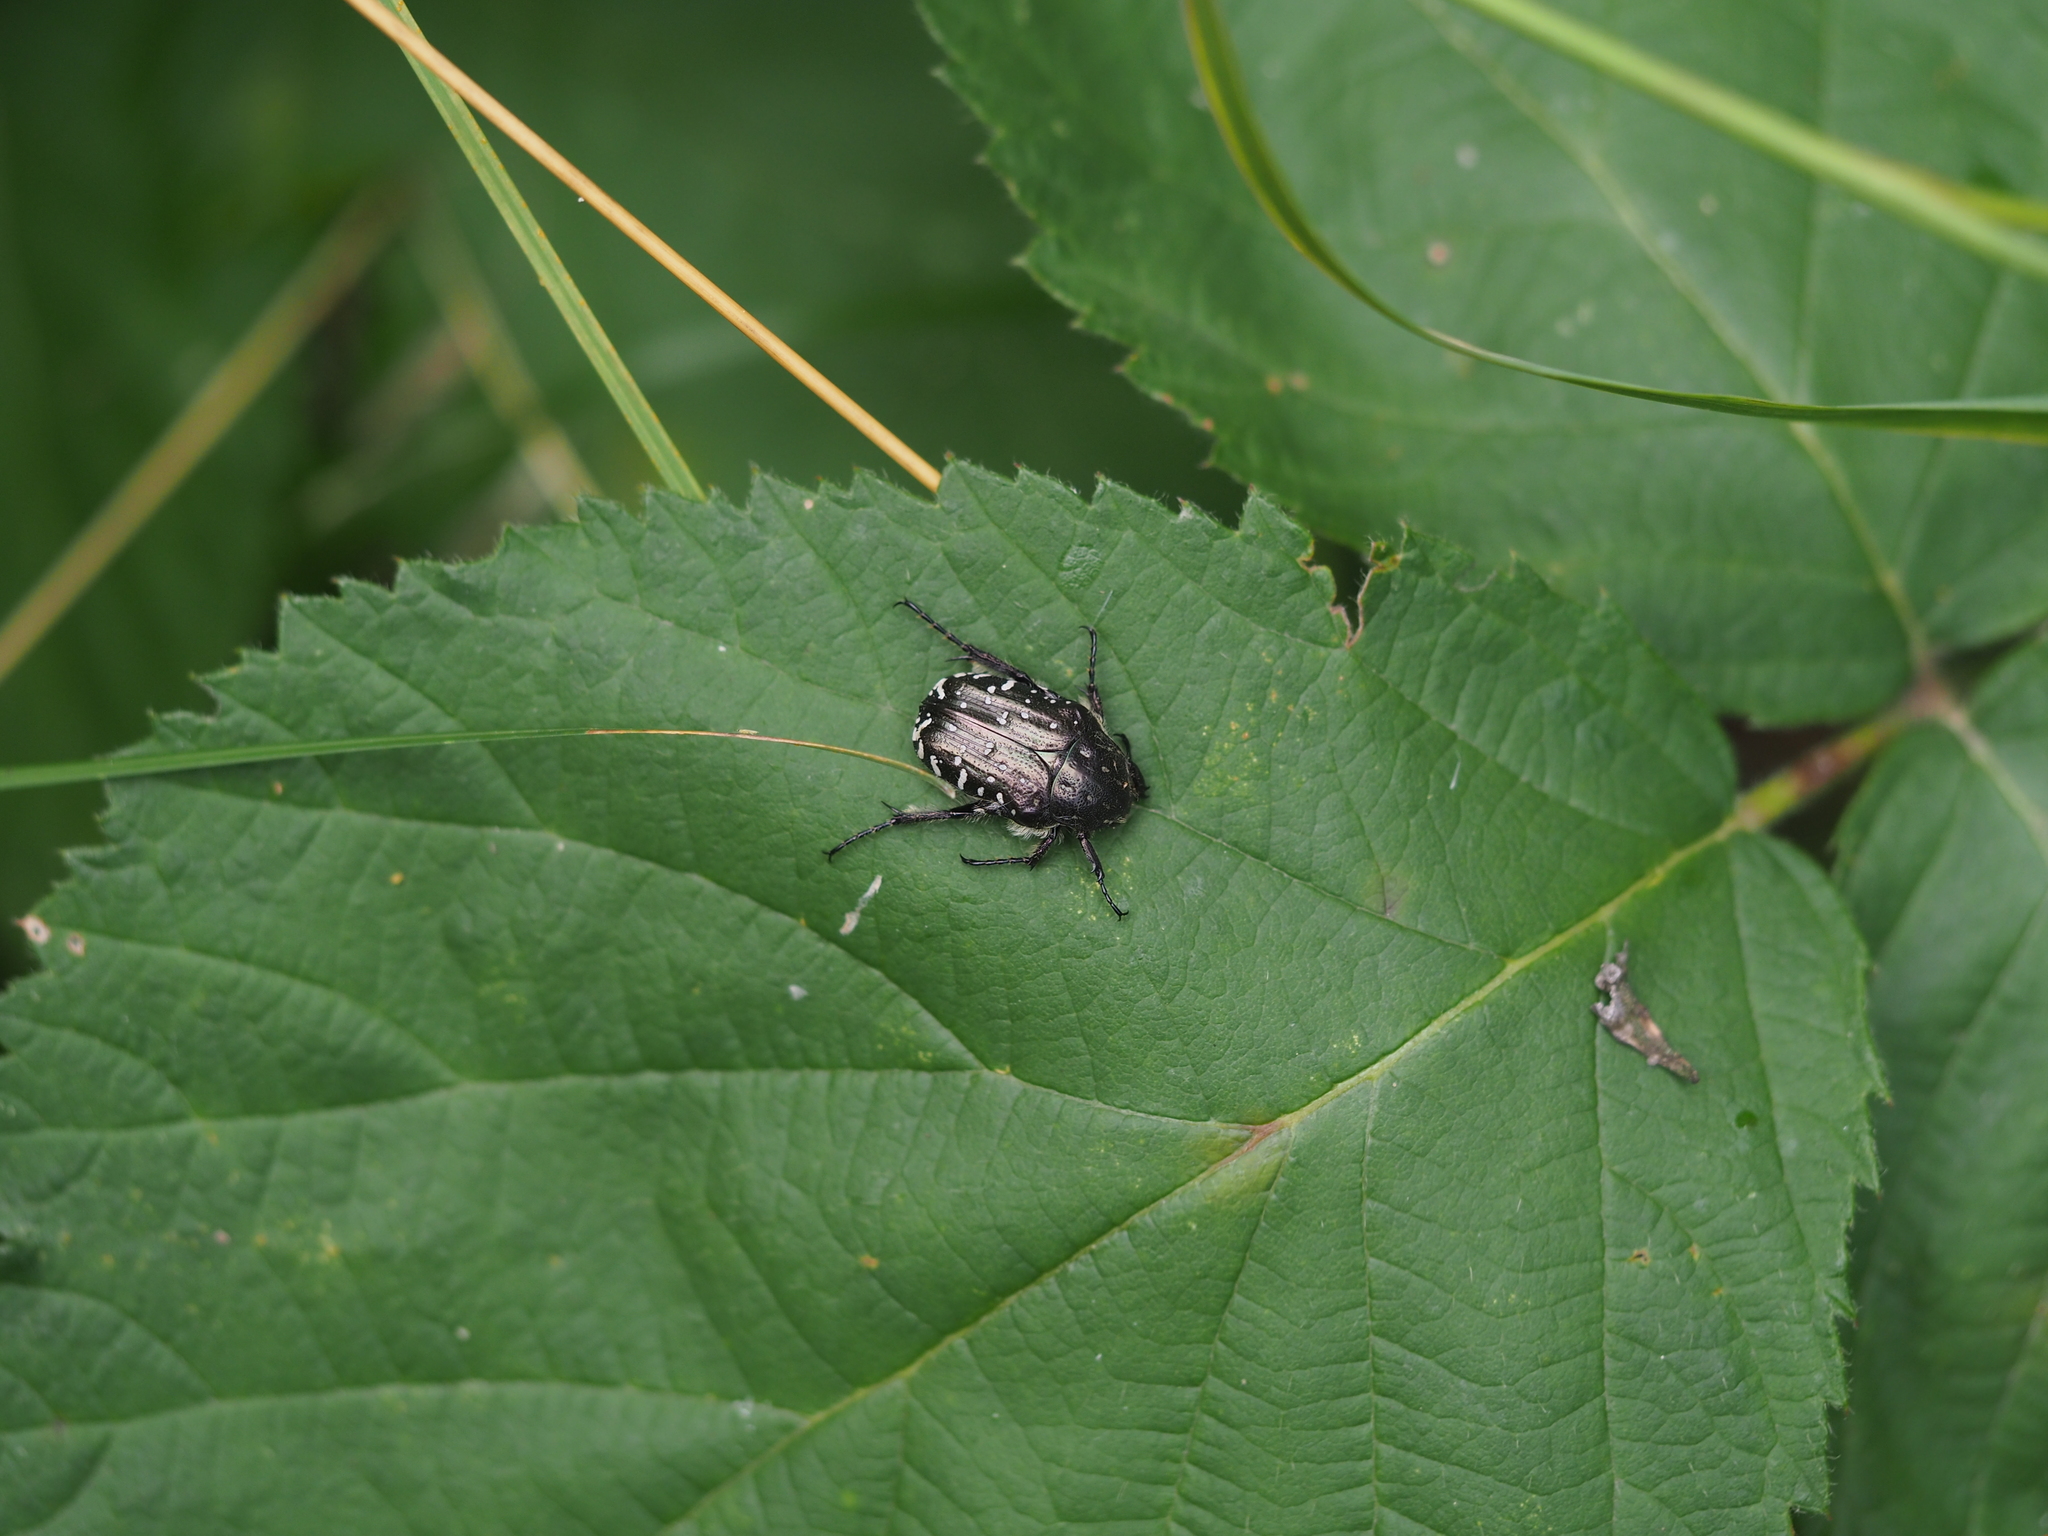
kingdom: Animalia
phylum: Arthropoda
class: Insecta
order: Coleoptera
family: Scarabaeidae
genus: Oxythyrea
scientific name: Oxythyrea funesta
